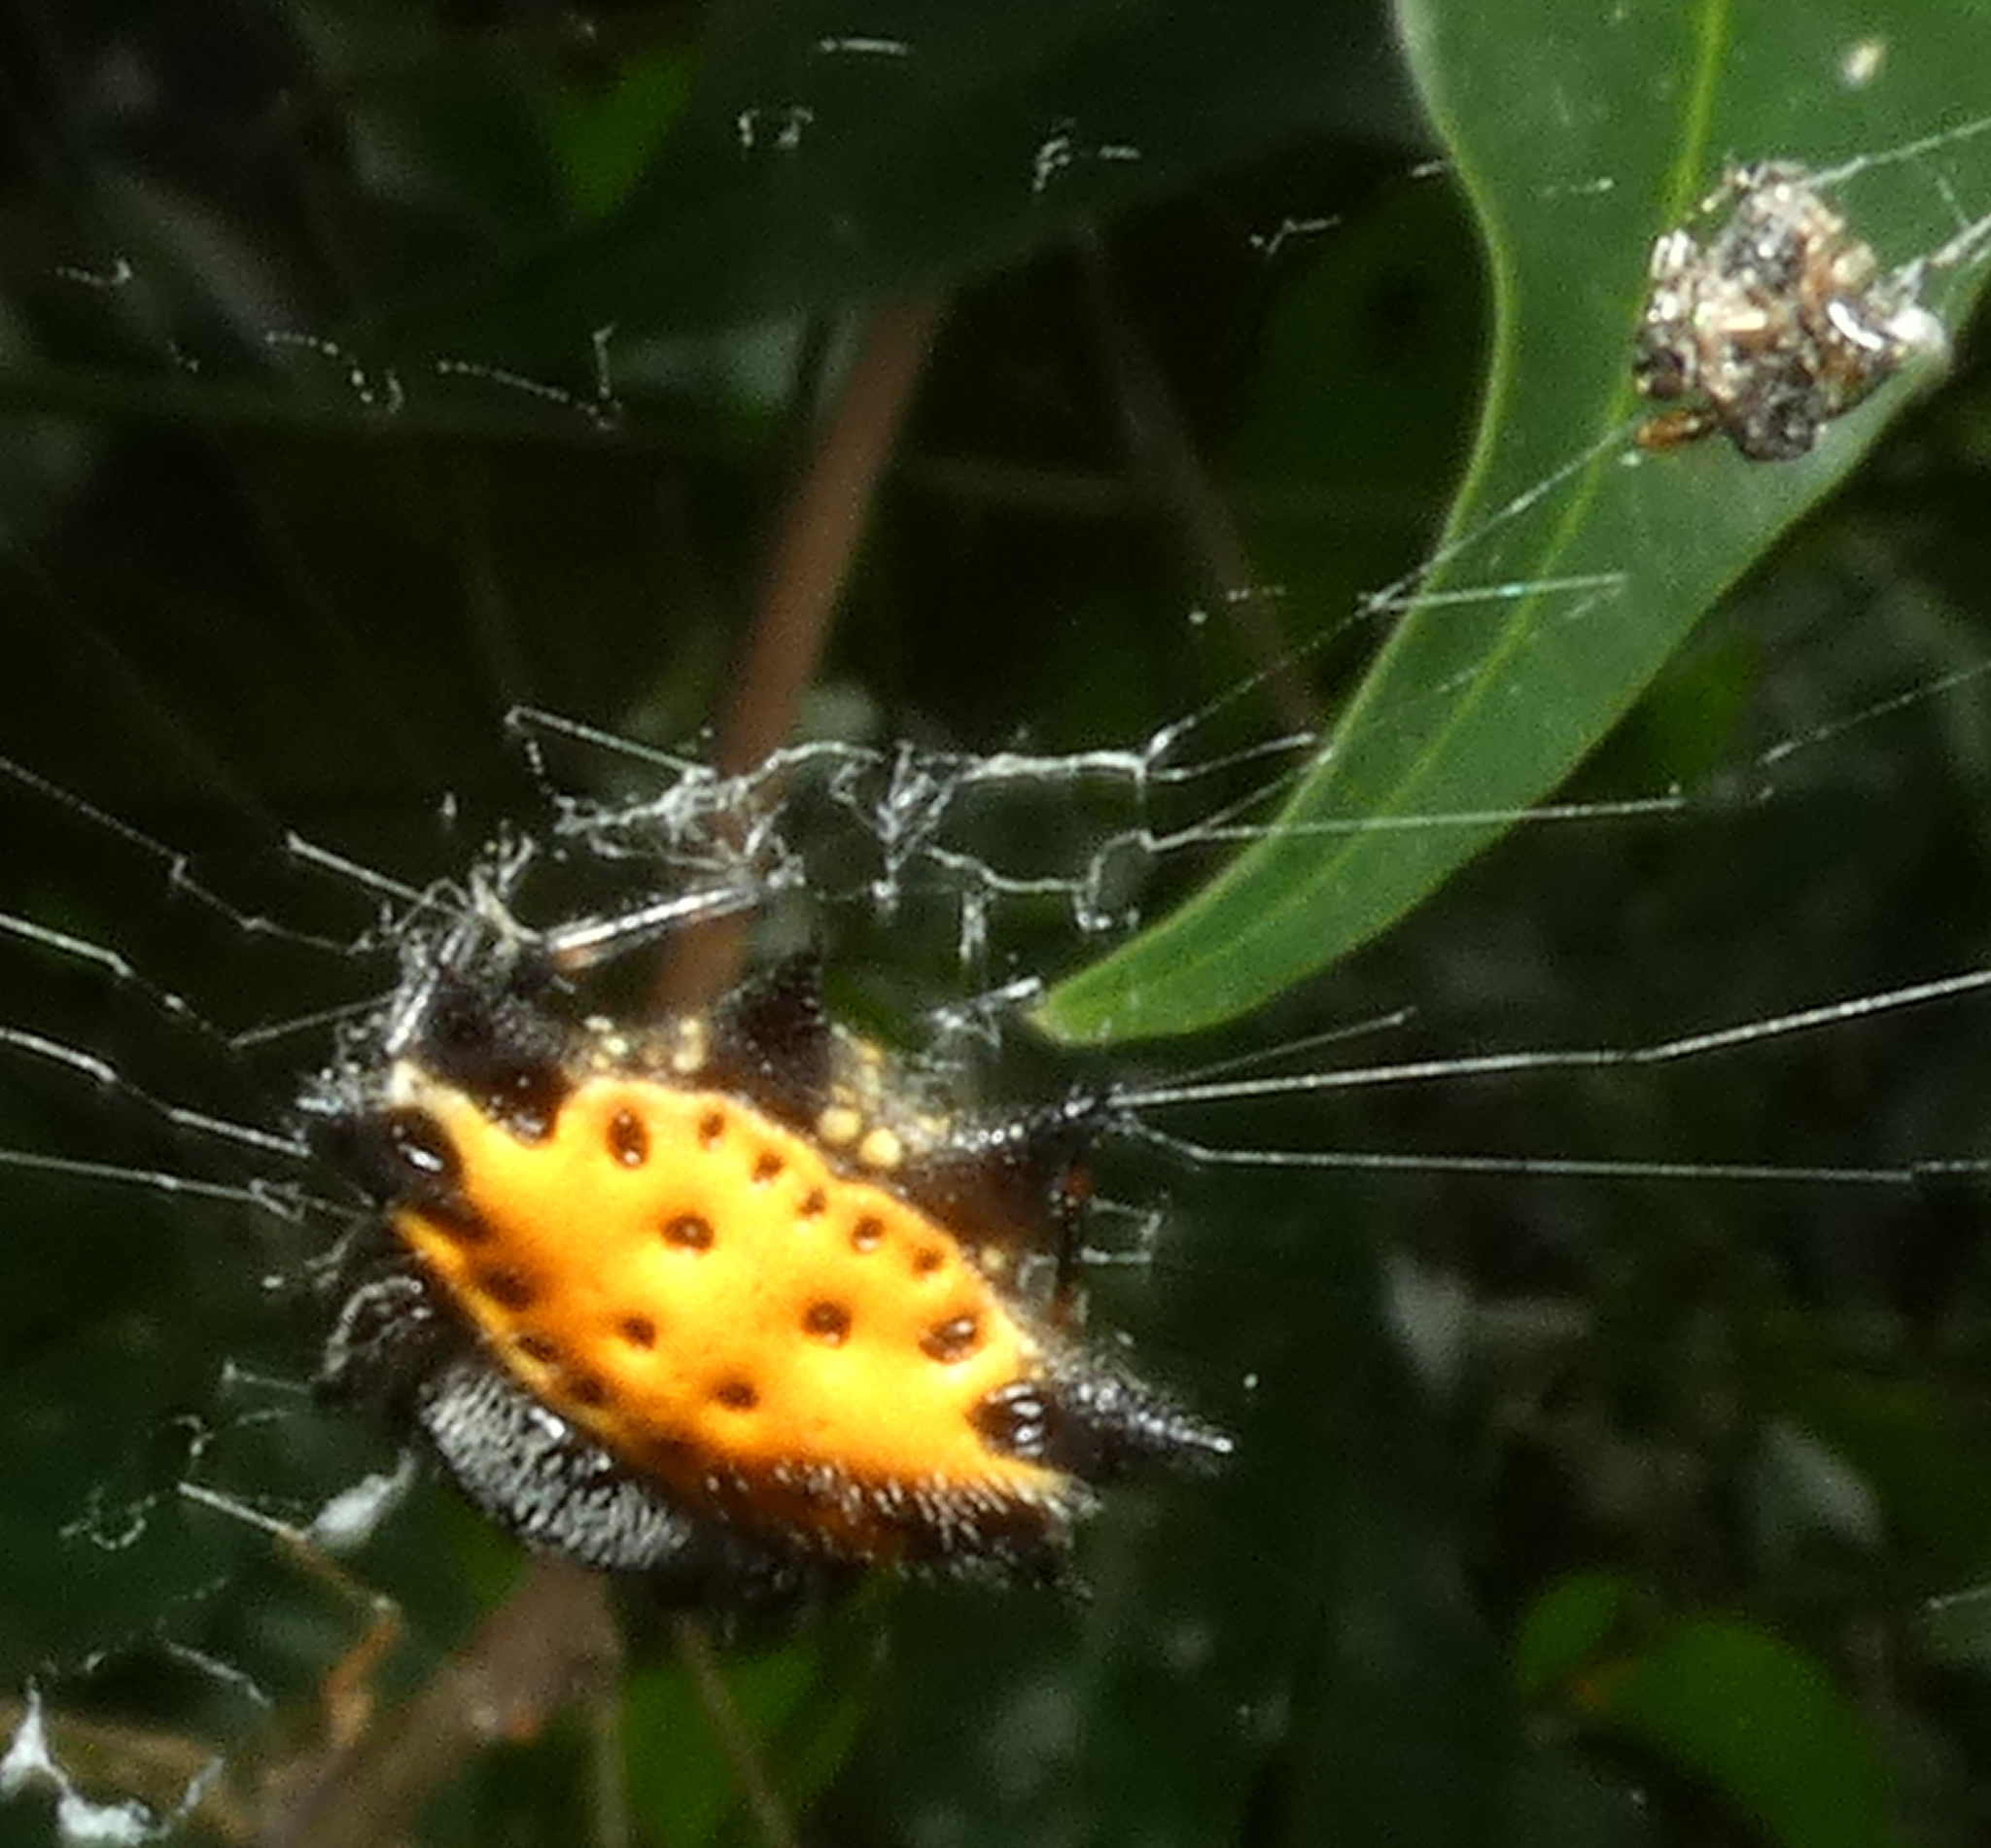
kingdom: Animalia
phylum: Arthropoda
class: Arachnida
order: Araneae
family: Araneidae
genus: Gasteracantha
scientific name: Gasteracantha cancriformis
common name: Orb weavers
